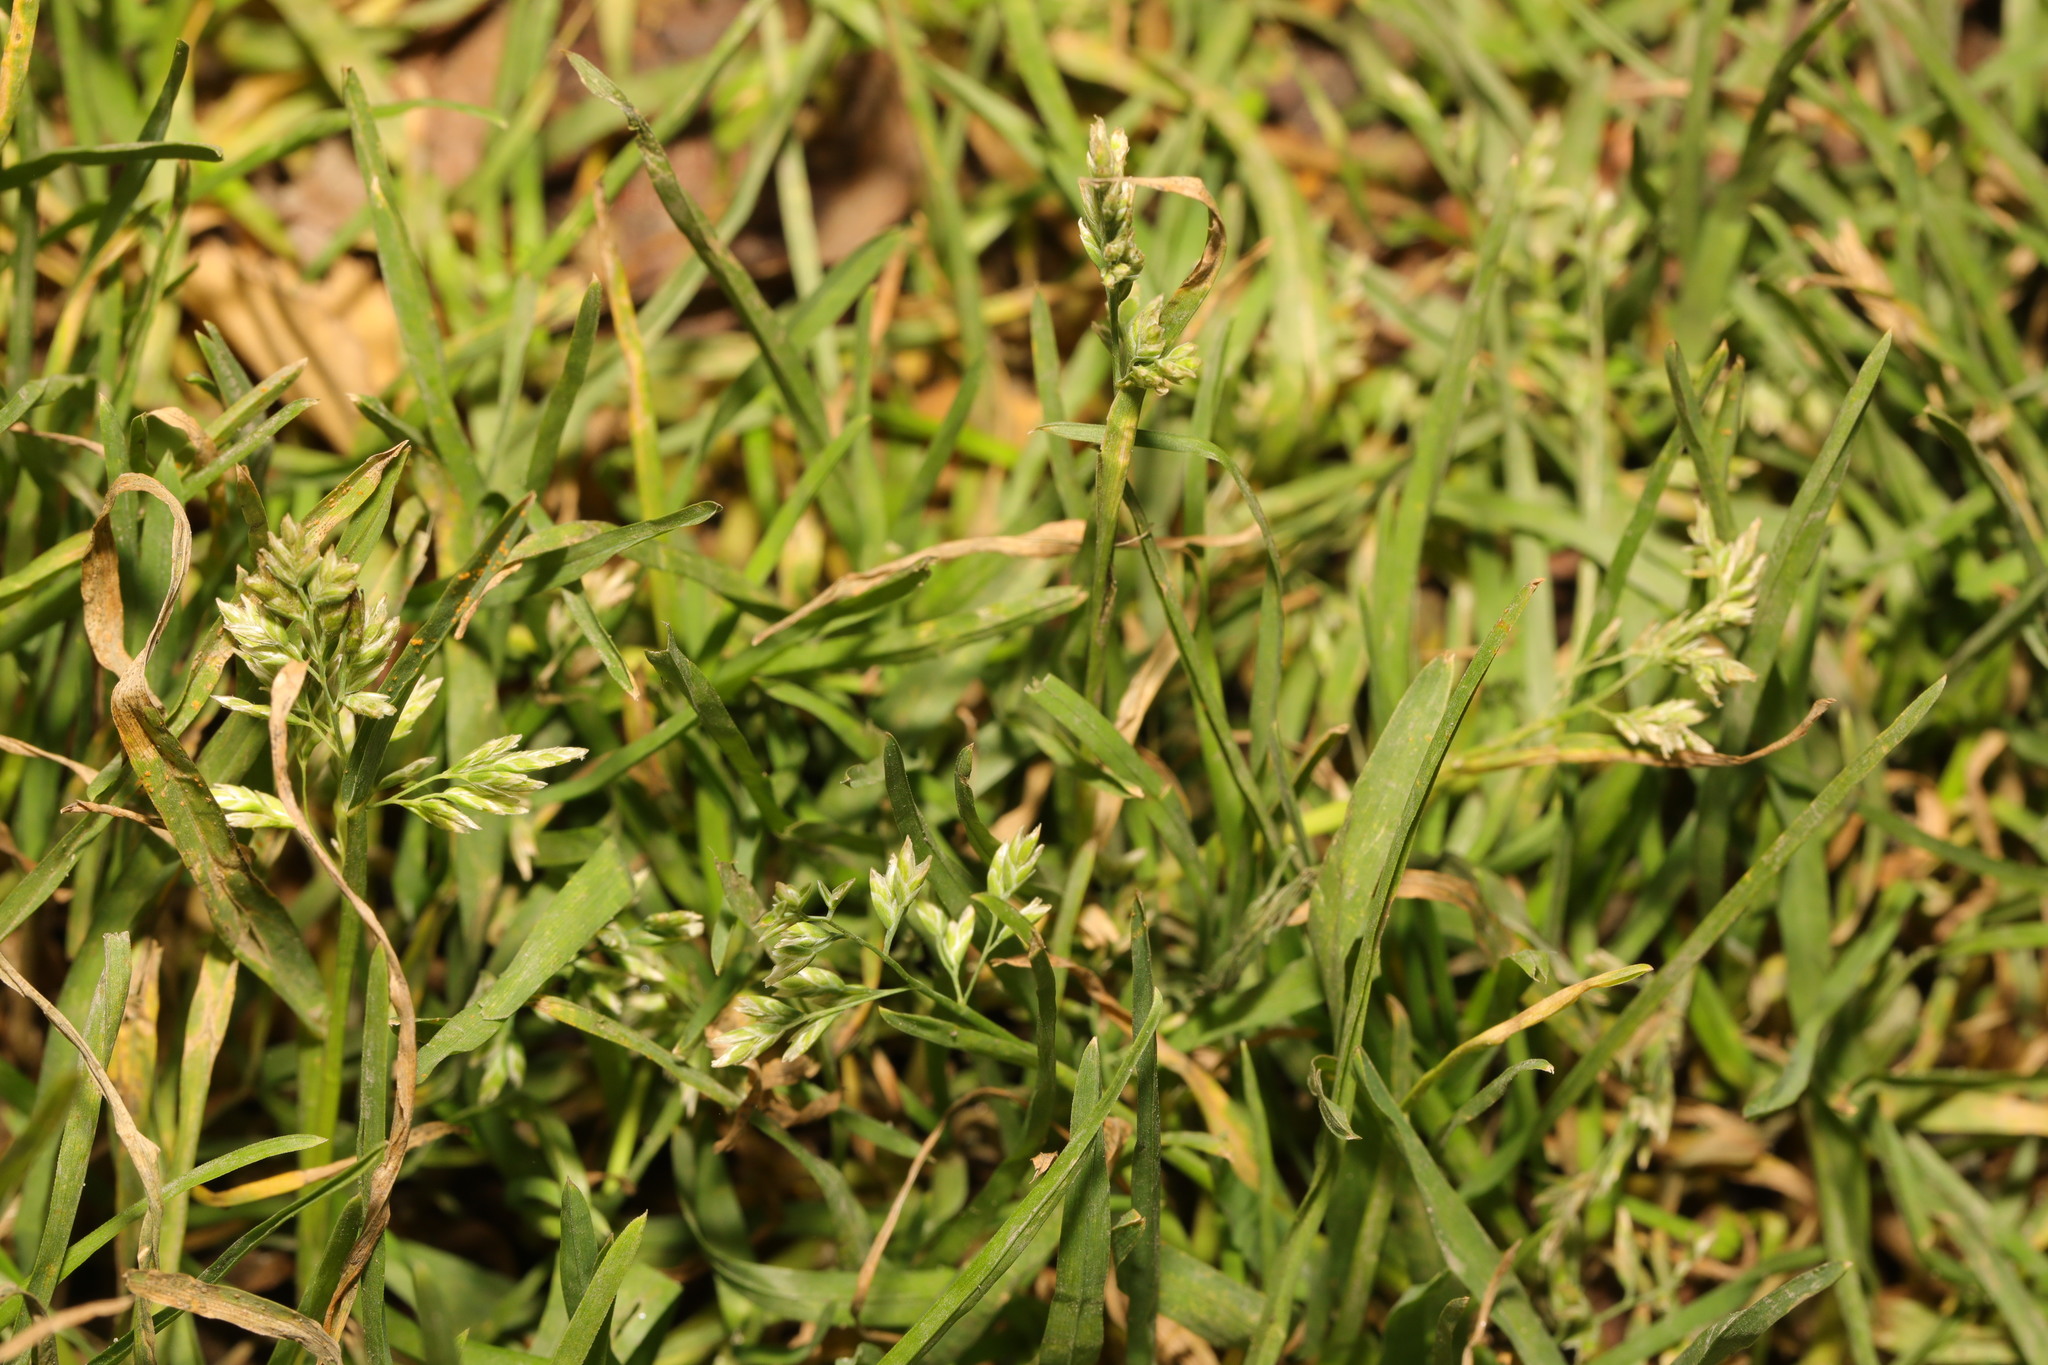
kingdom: Plantae
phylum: Tracheophyta
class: Liliopsida
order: Poales
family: Poaceae
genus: Poa
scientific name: Poa annua
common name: Annual bluegrass
